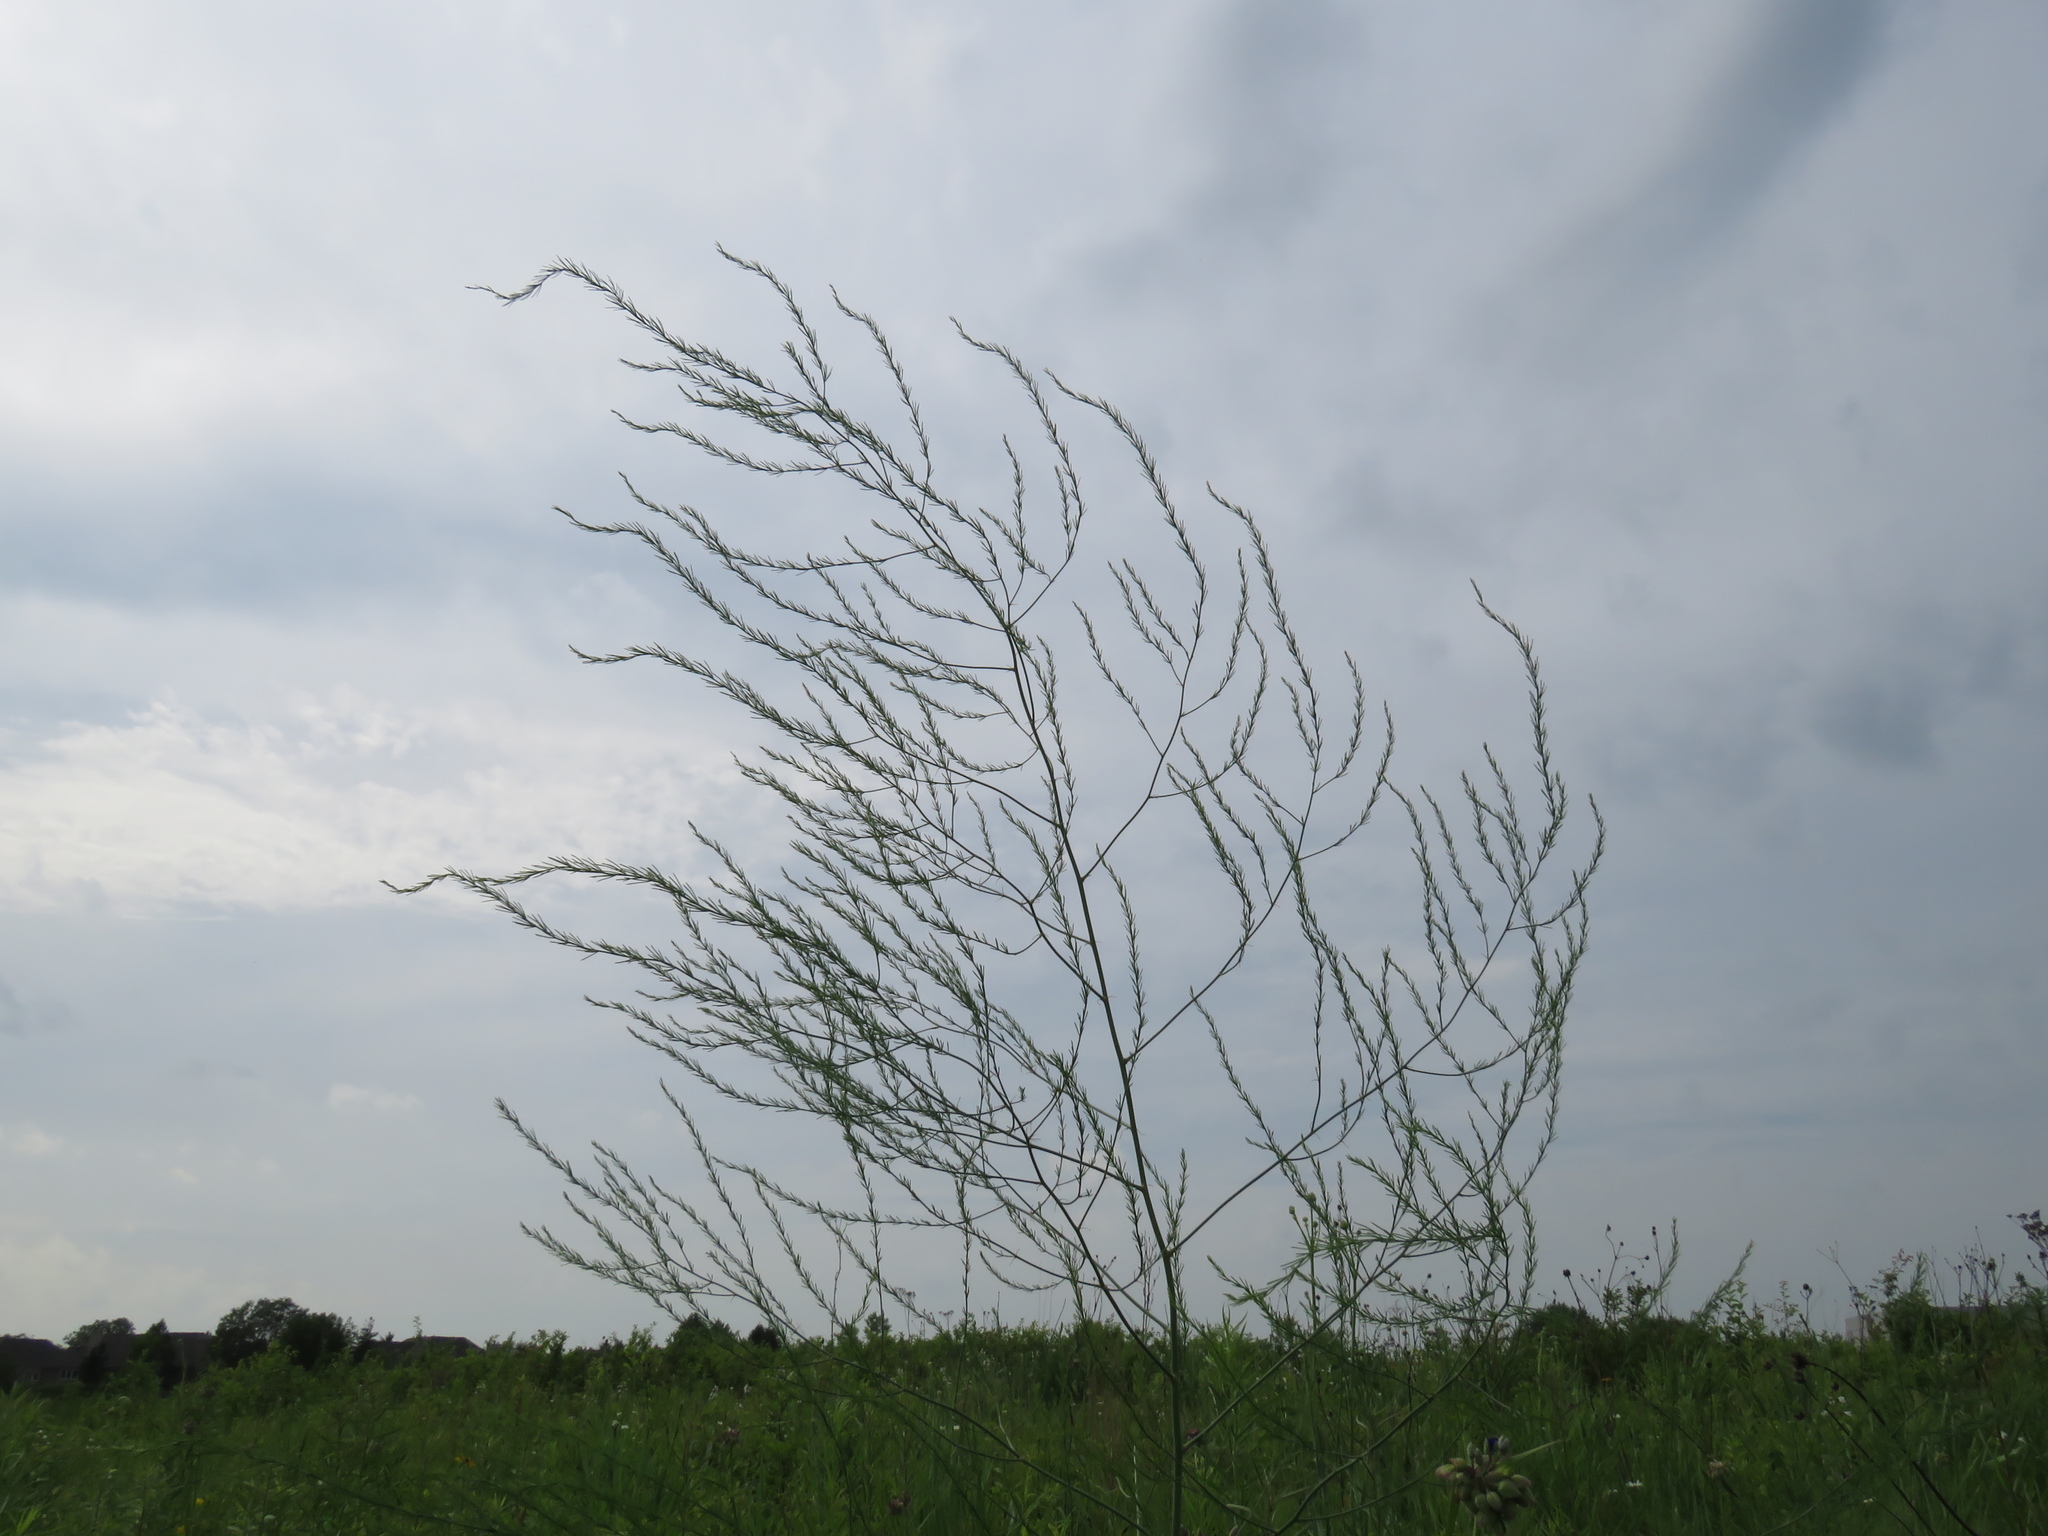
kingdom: Plantae
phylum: Tracheophyta
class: Liliopsida
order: Asparagales
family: Asparagaceae
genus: Asparagus
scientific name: Asparagus officinalis
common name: Garden asparagus
